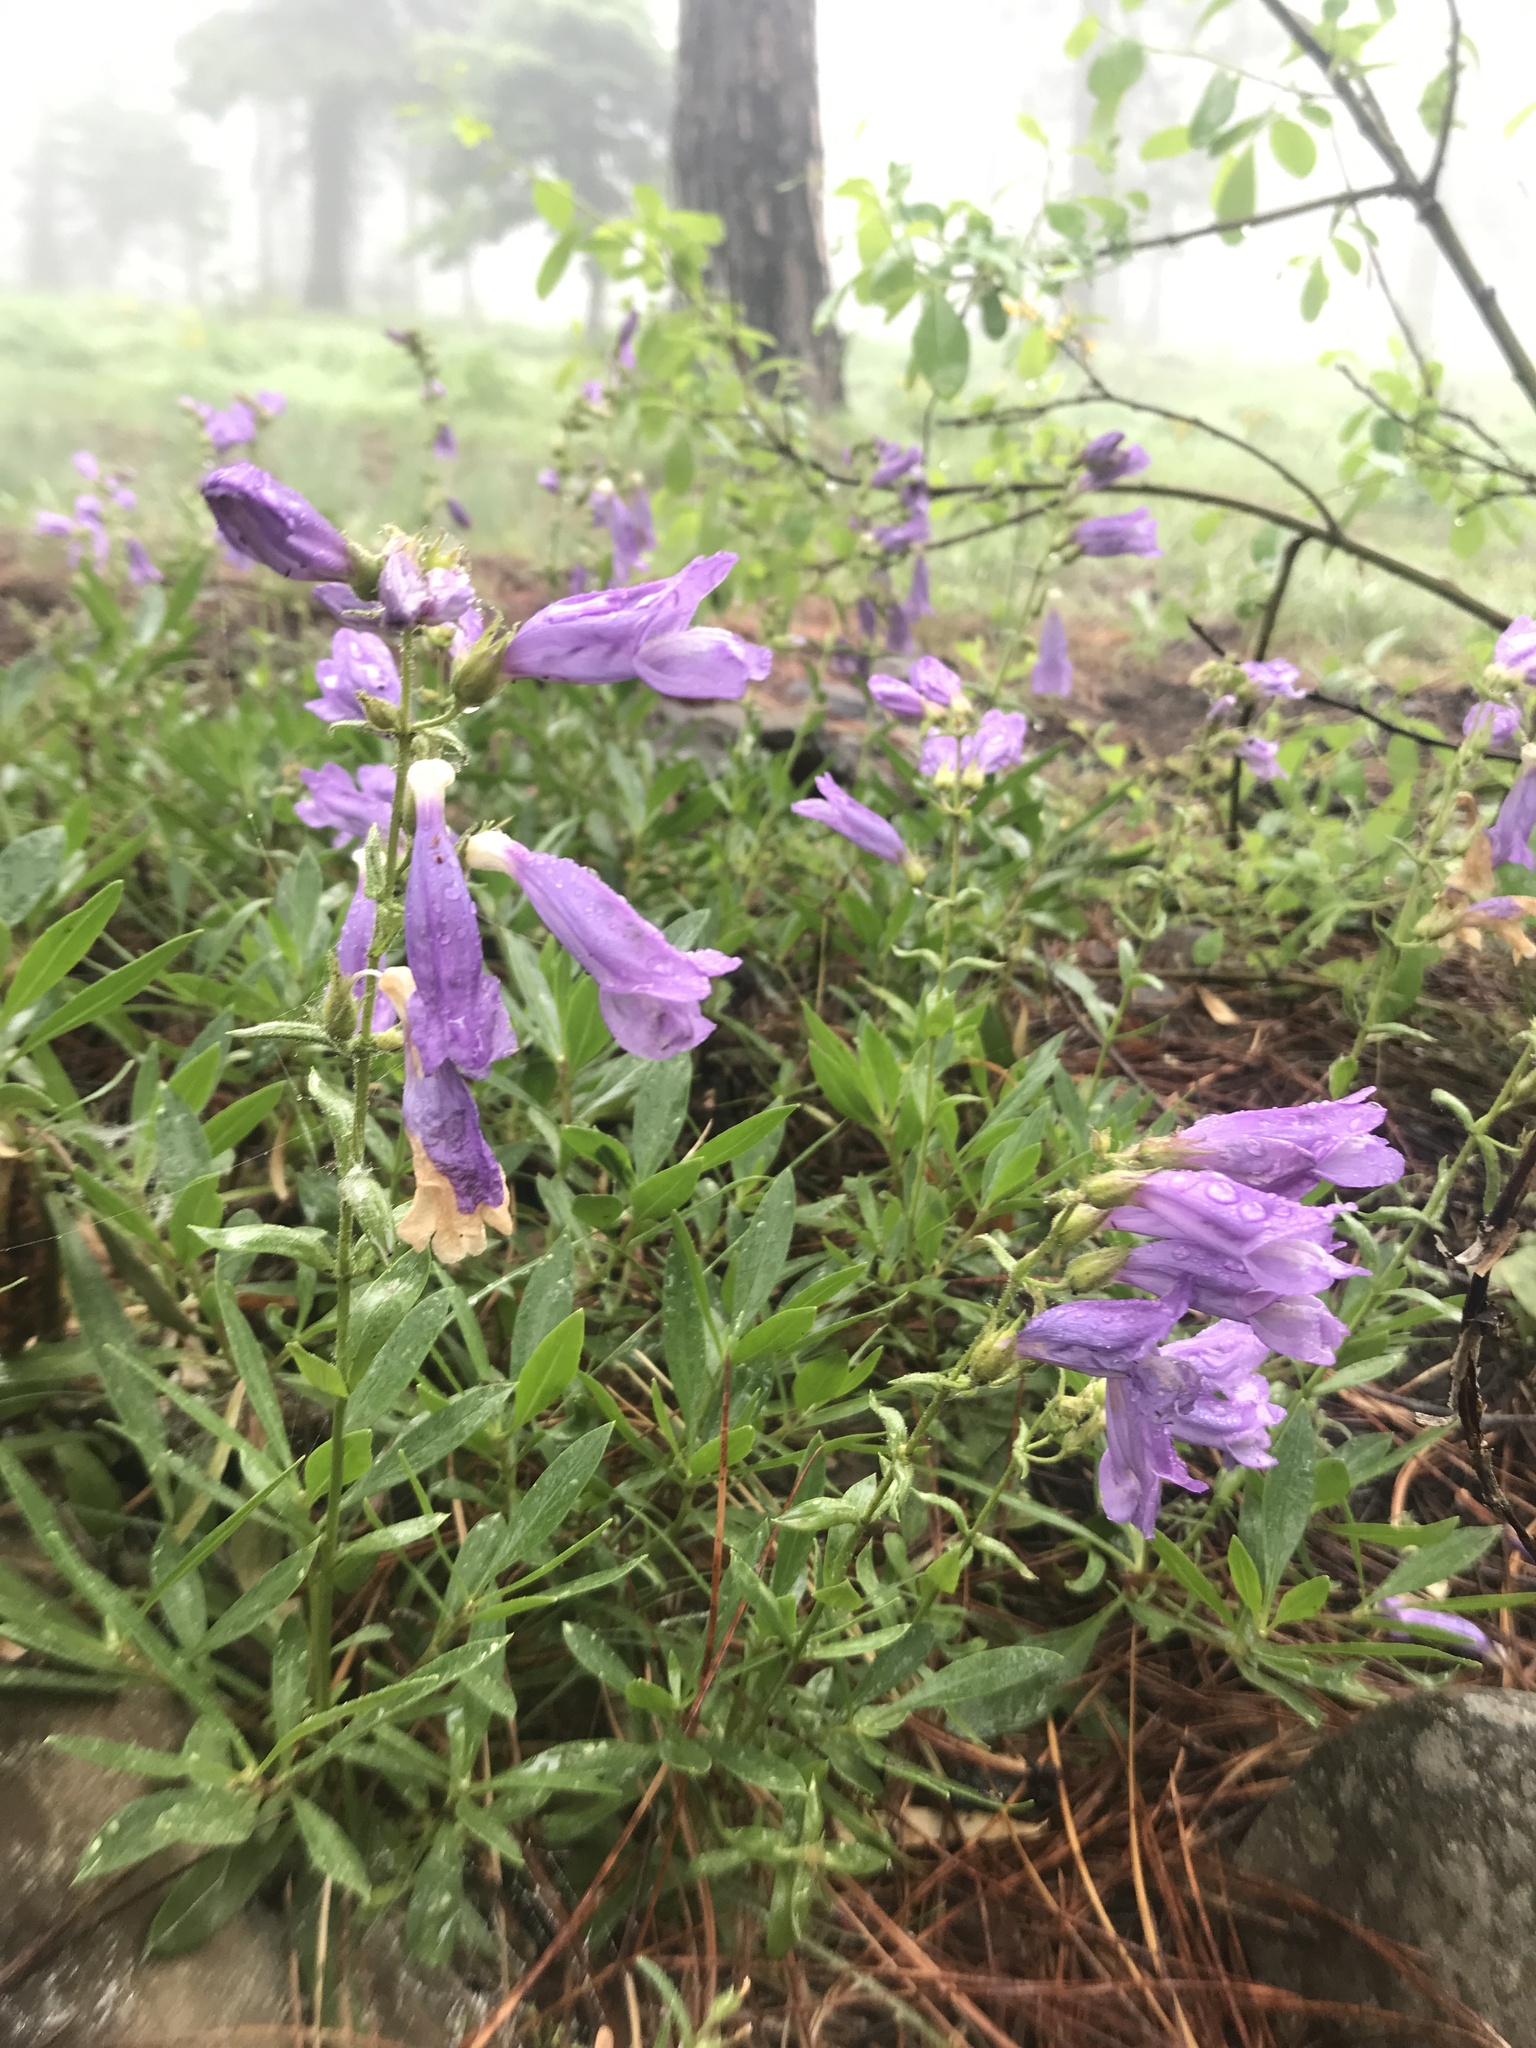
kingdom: Plantae
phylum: Tracheophyta
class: Magnoliopsida
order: Lamiales
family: Plantaginaceae
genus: Penstemon
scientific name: Penstemon fruticosus
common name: Bush penstemon
